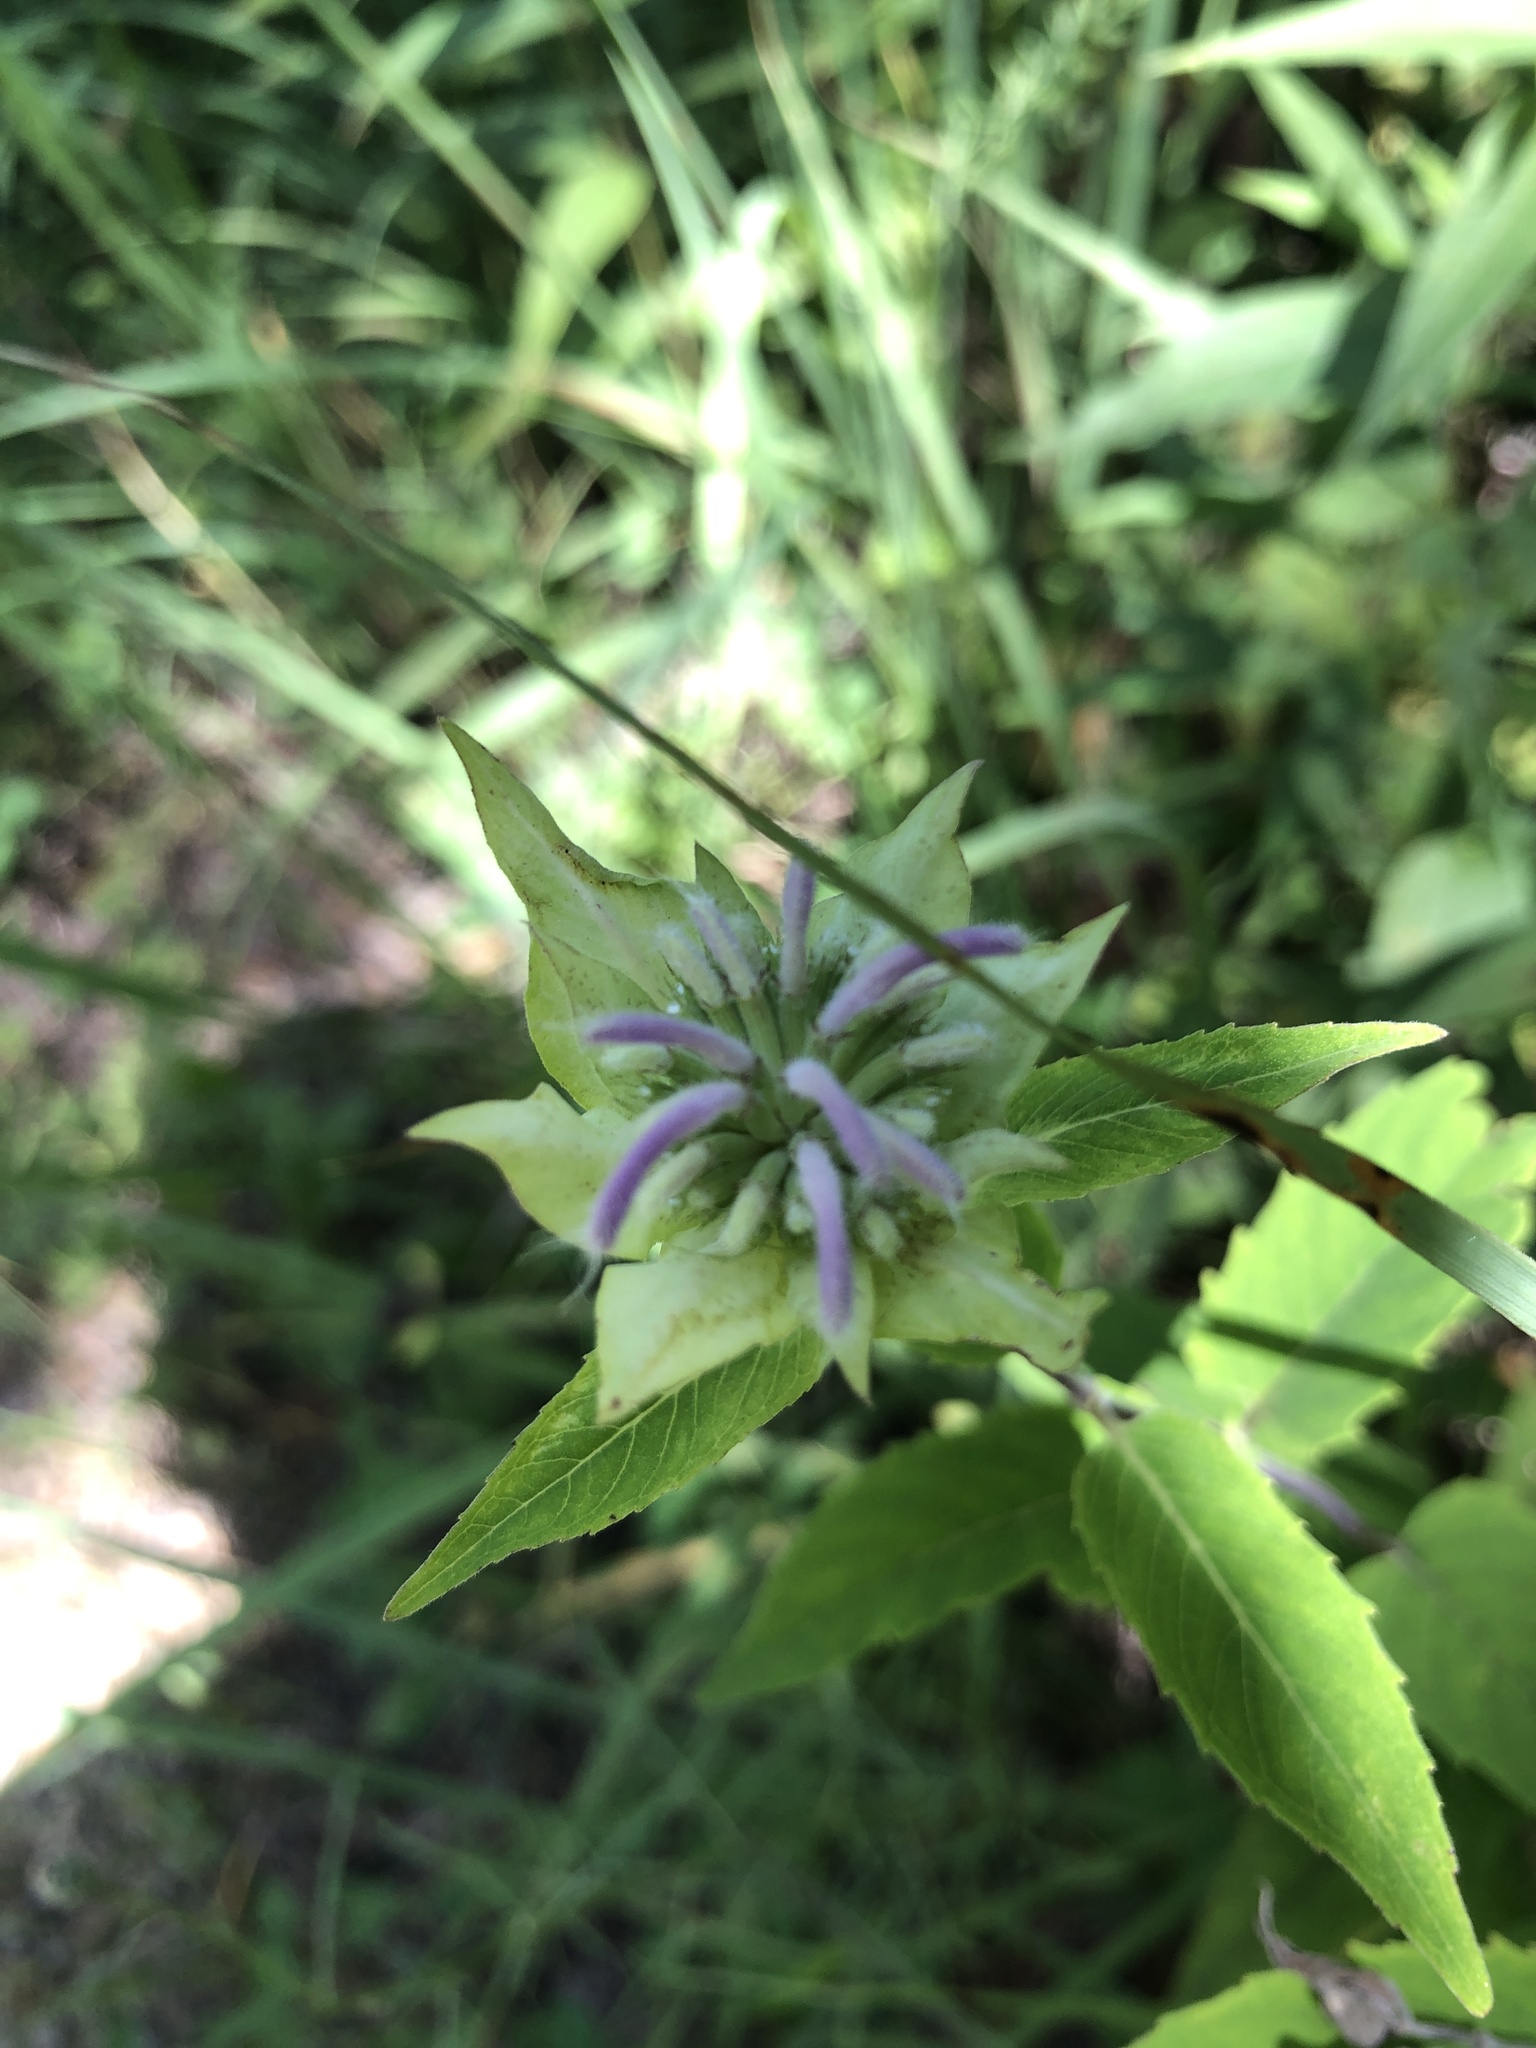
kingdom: Plantae
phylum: Tracheophyta
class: Magnoliopsida
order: Lamiales
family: Lamiaceae
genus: Monarda
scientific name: Monarda fistulosa
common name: Purple beebalm
